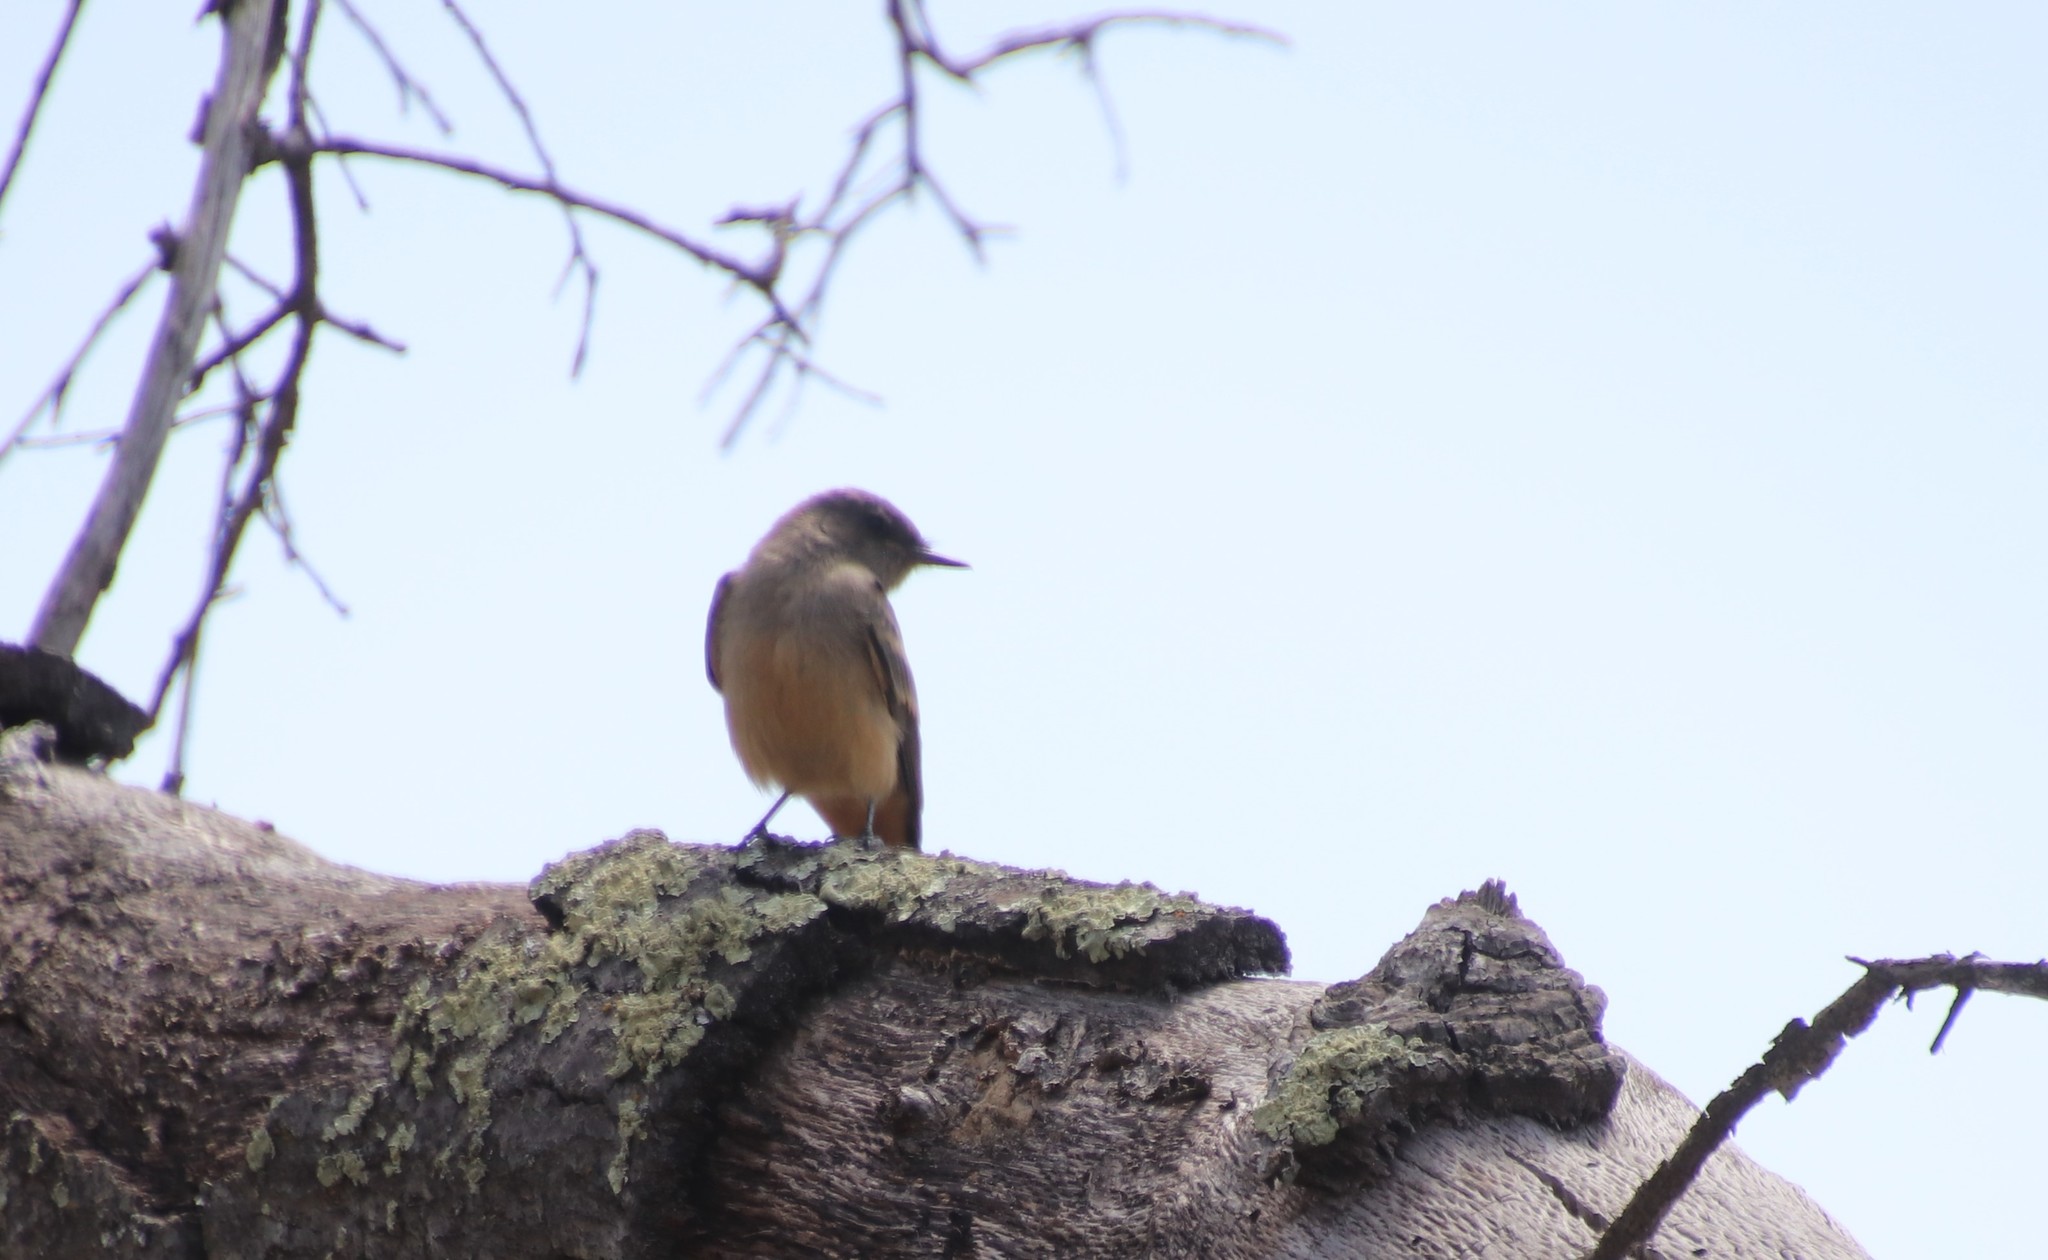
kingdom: Animalia
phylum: Chordata
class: Aves
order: Passeriformes
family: Tyrannidae
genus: Sayornis
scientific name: Sayornis saya
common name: Say's phoebe
